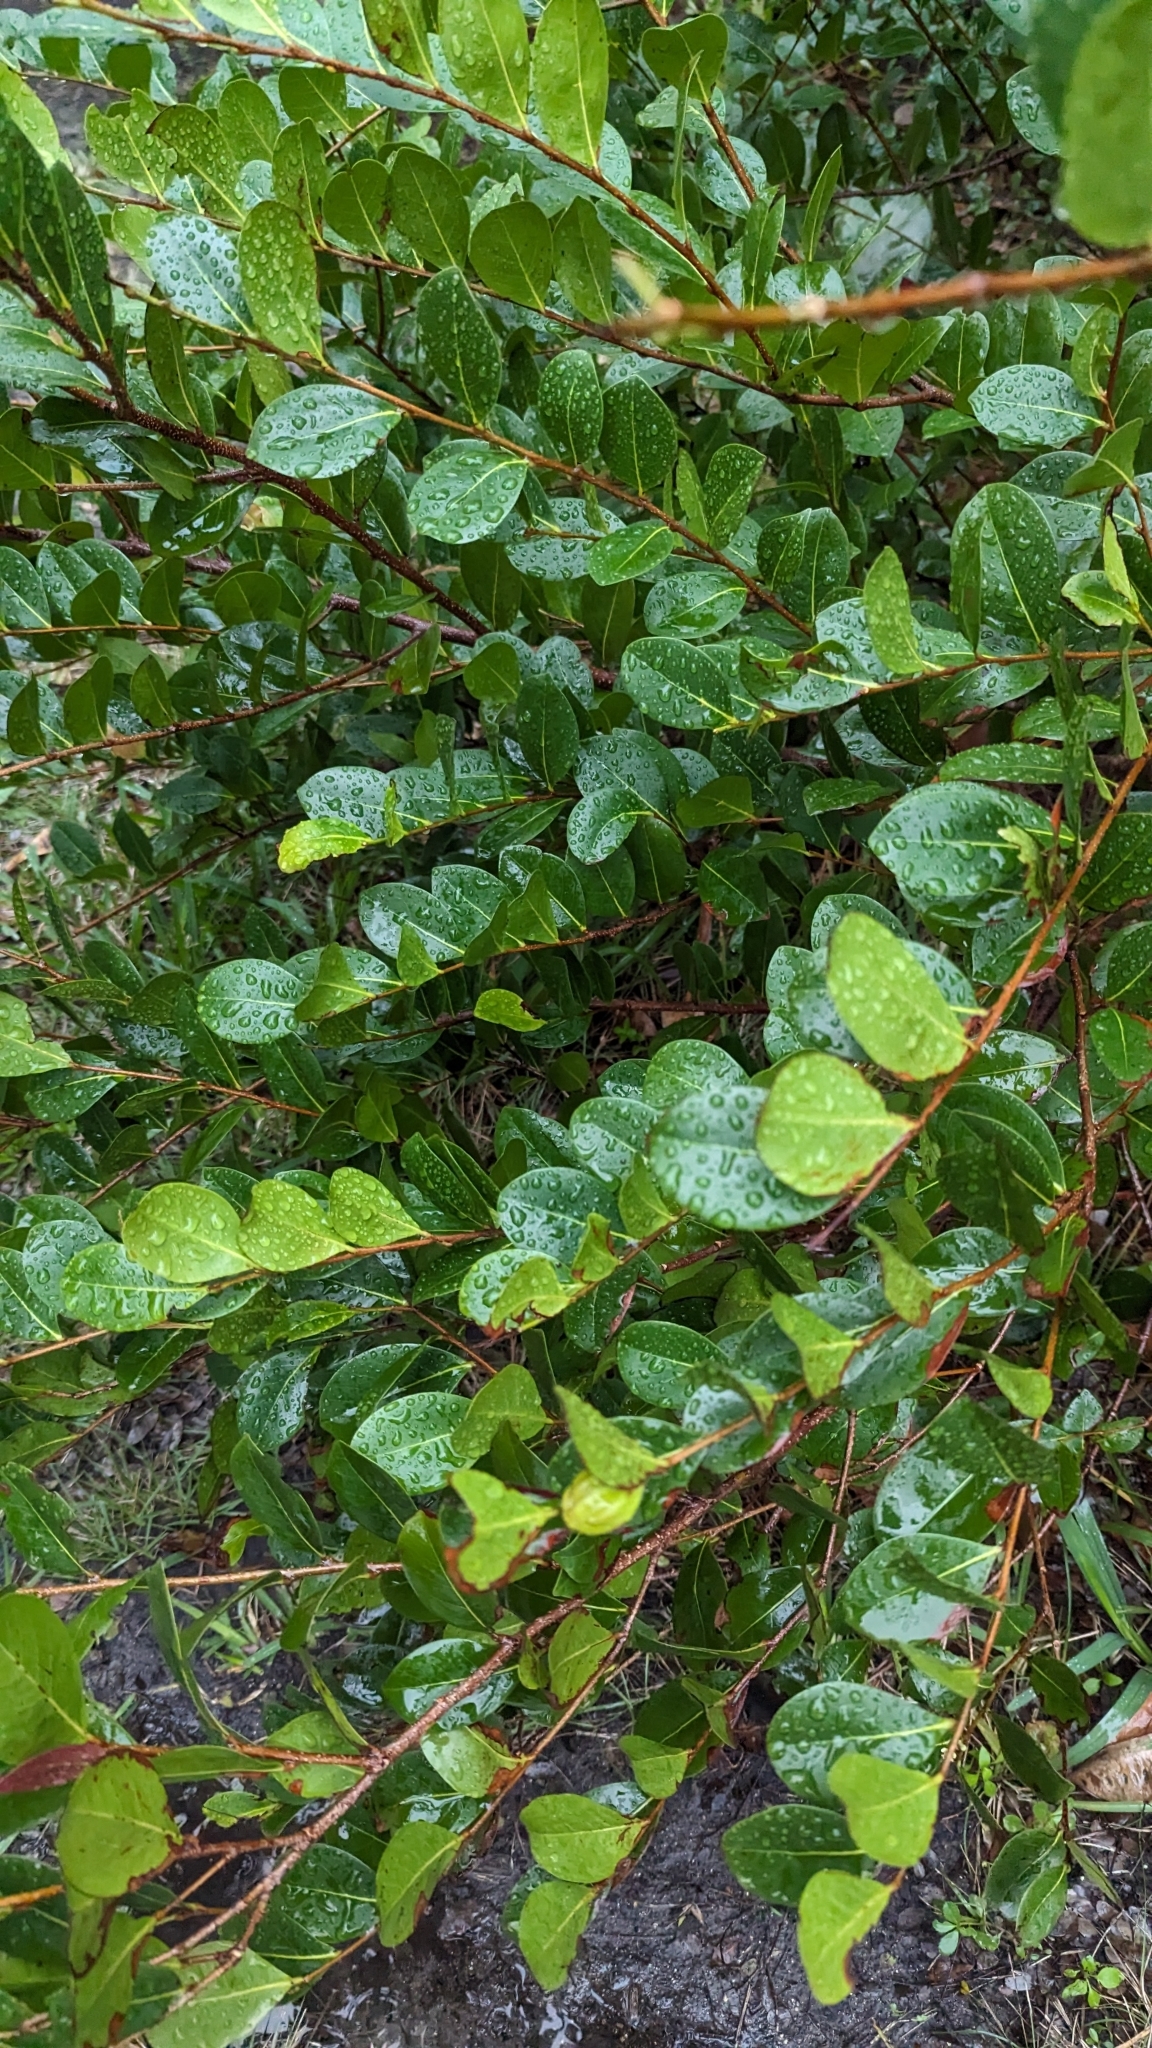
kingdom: Plantae
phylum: Tracheophyta
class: Magnoliopsida
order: Malpighiales
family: Chrysobalanaceae
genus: Chrysobalanus
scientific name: Chrysobalanus icaco
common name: Coco plum
